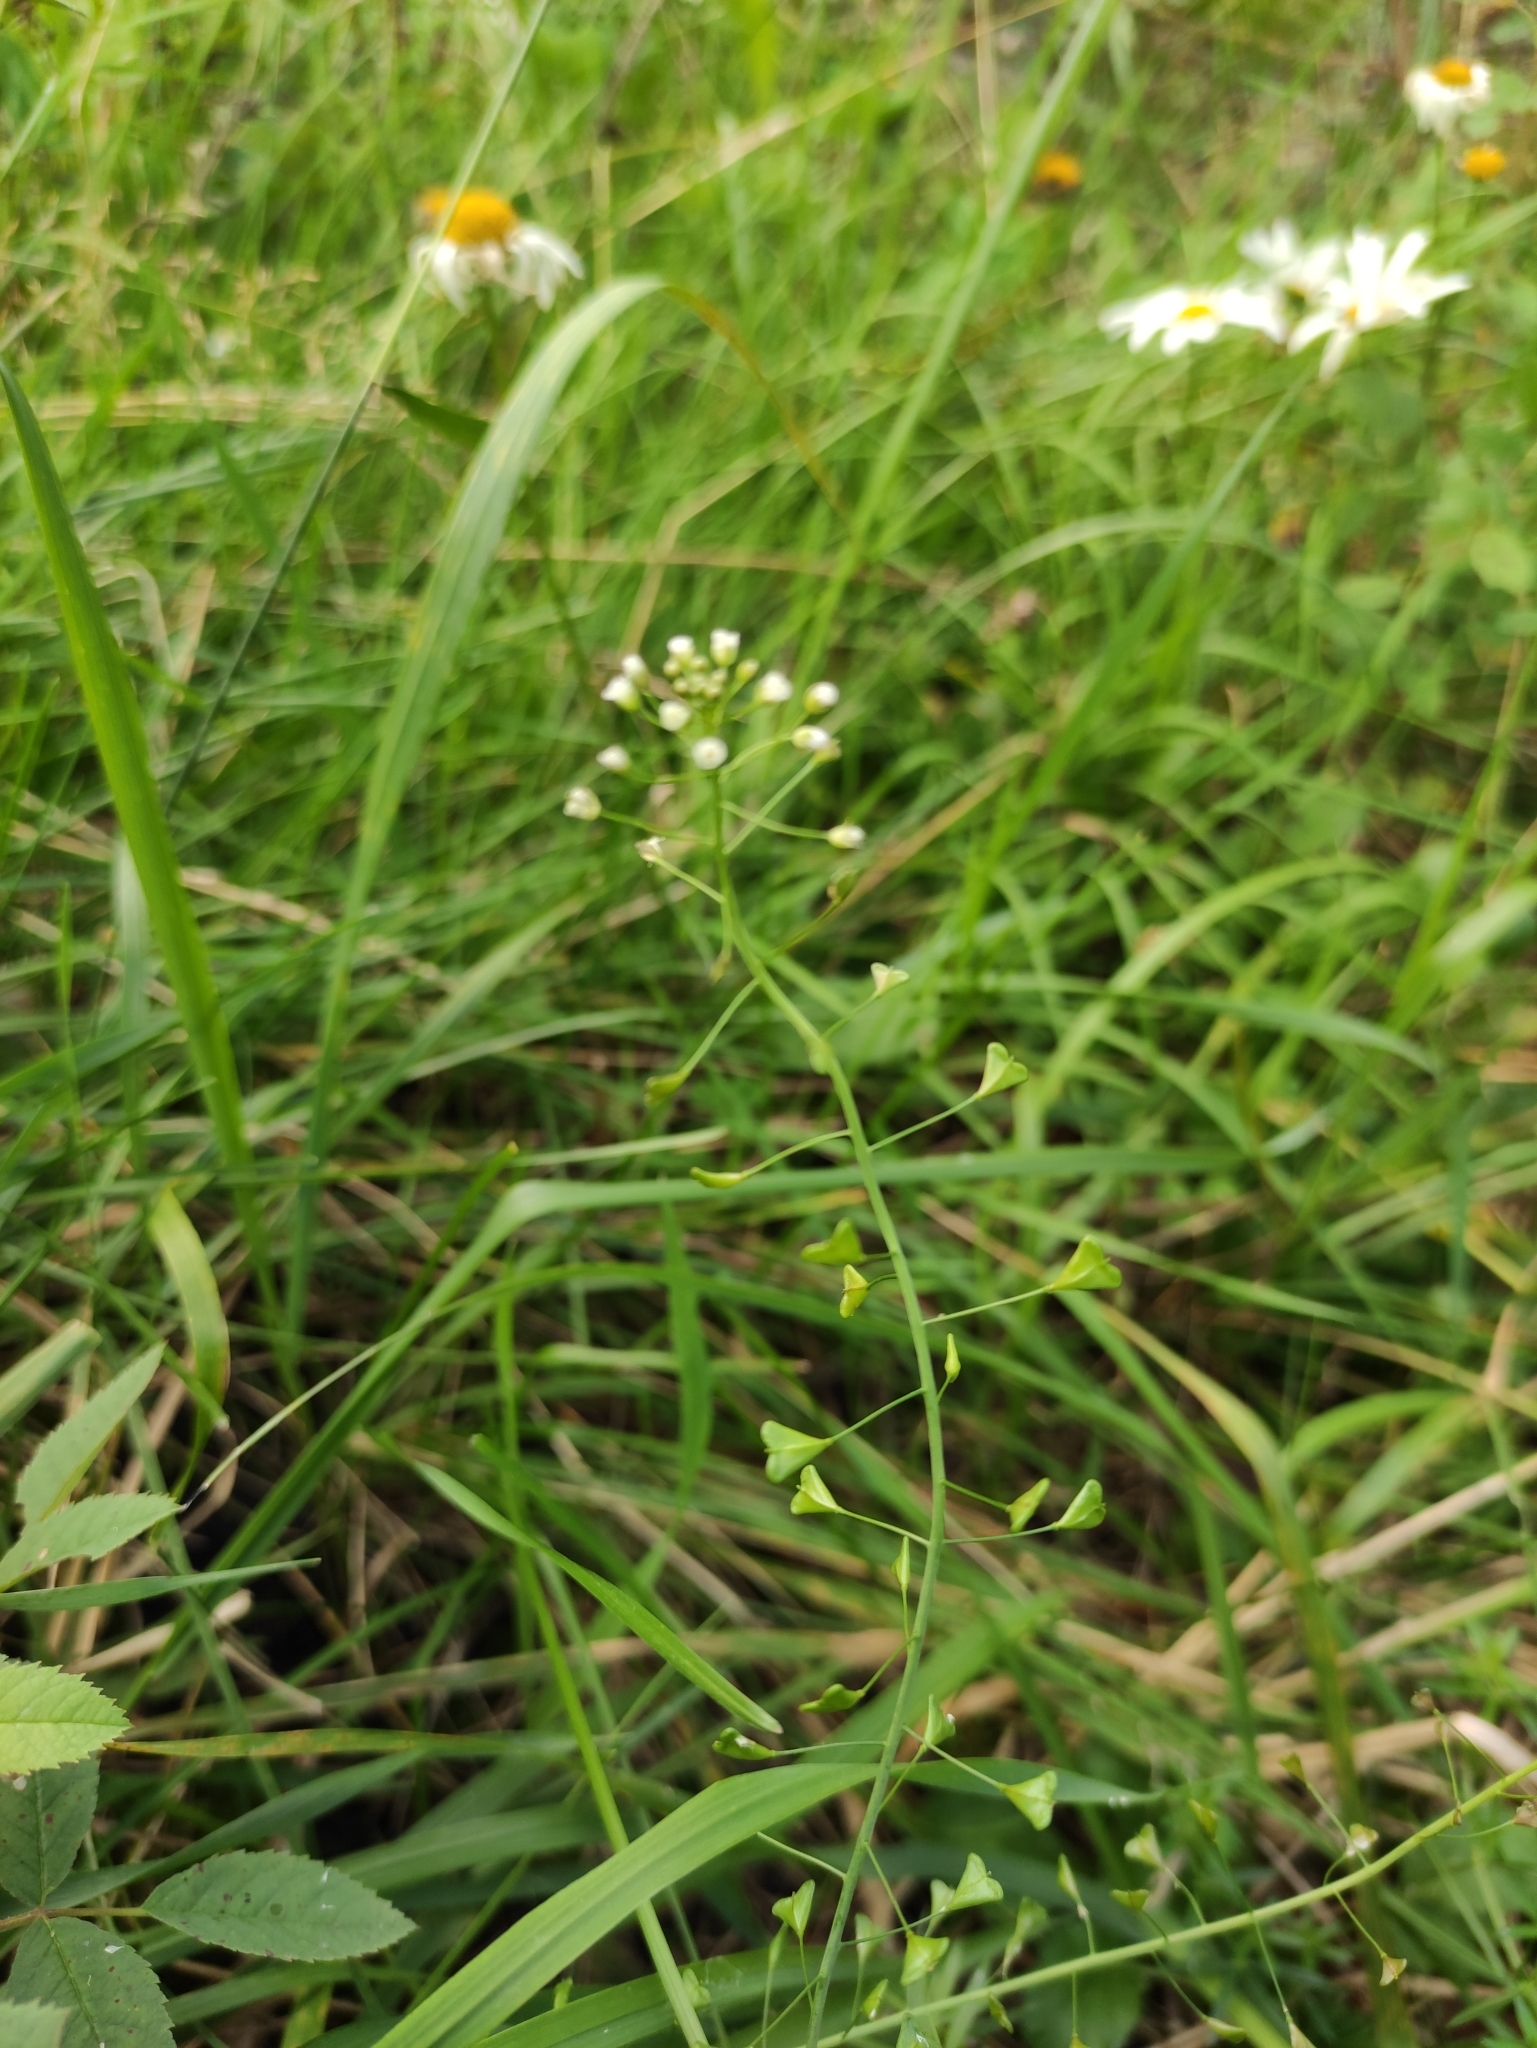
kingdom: Plantae
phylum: Tracheophyta
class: Magnoliopsida
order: Brassicales
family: Brassicaceae
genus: Capsella
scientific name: Capsella bursa-pastoris
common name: Shepherd's purse
